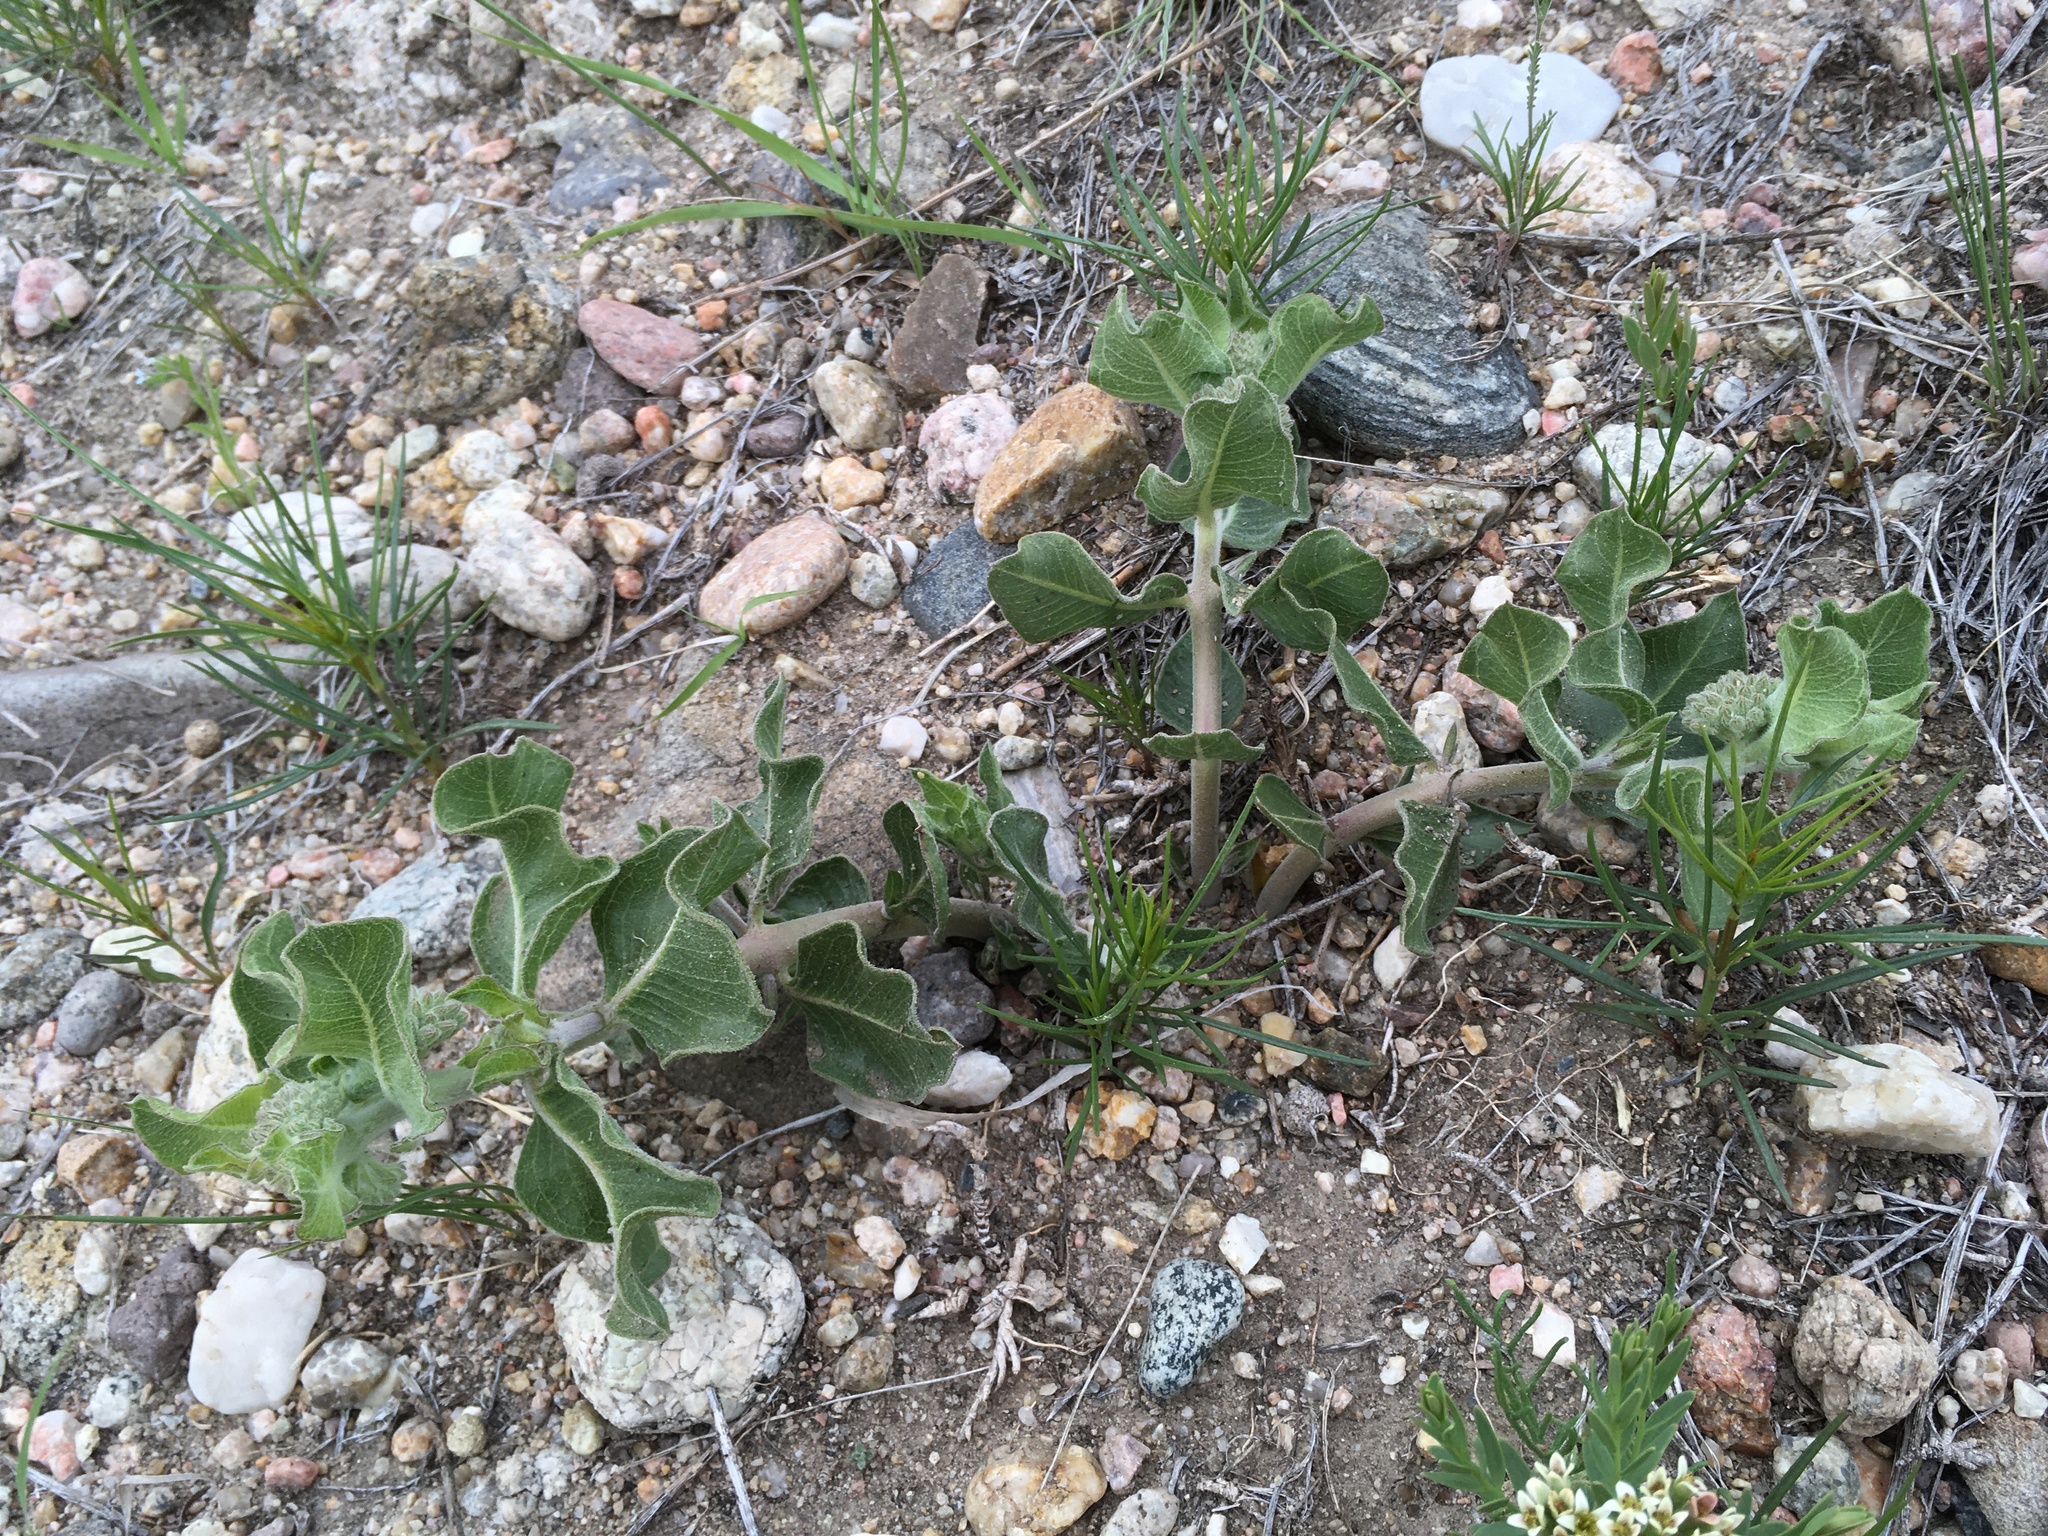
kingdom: Plantae
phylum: Tracheophyta
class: Magnoliopsida
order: Gentianales
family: Apocynaceae
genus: Asclepias
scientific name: Asclepias viridiflora
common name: Green comet milkweed
